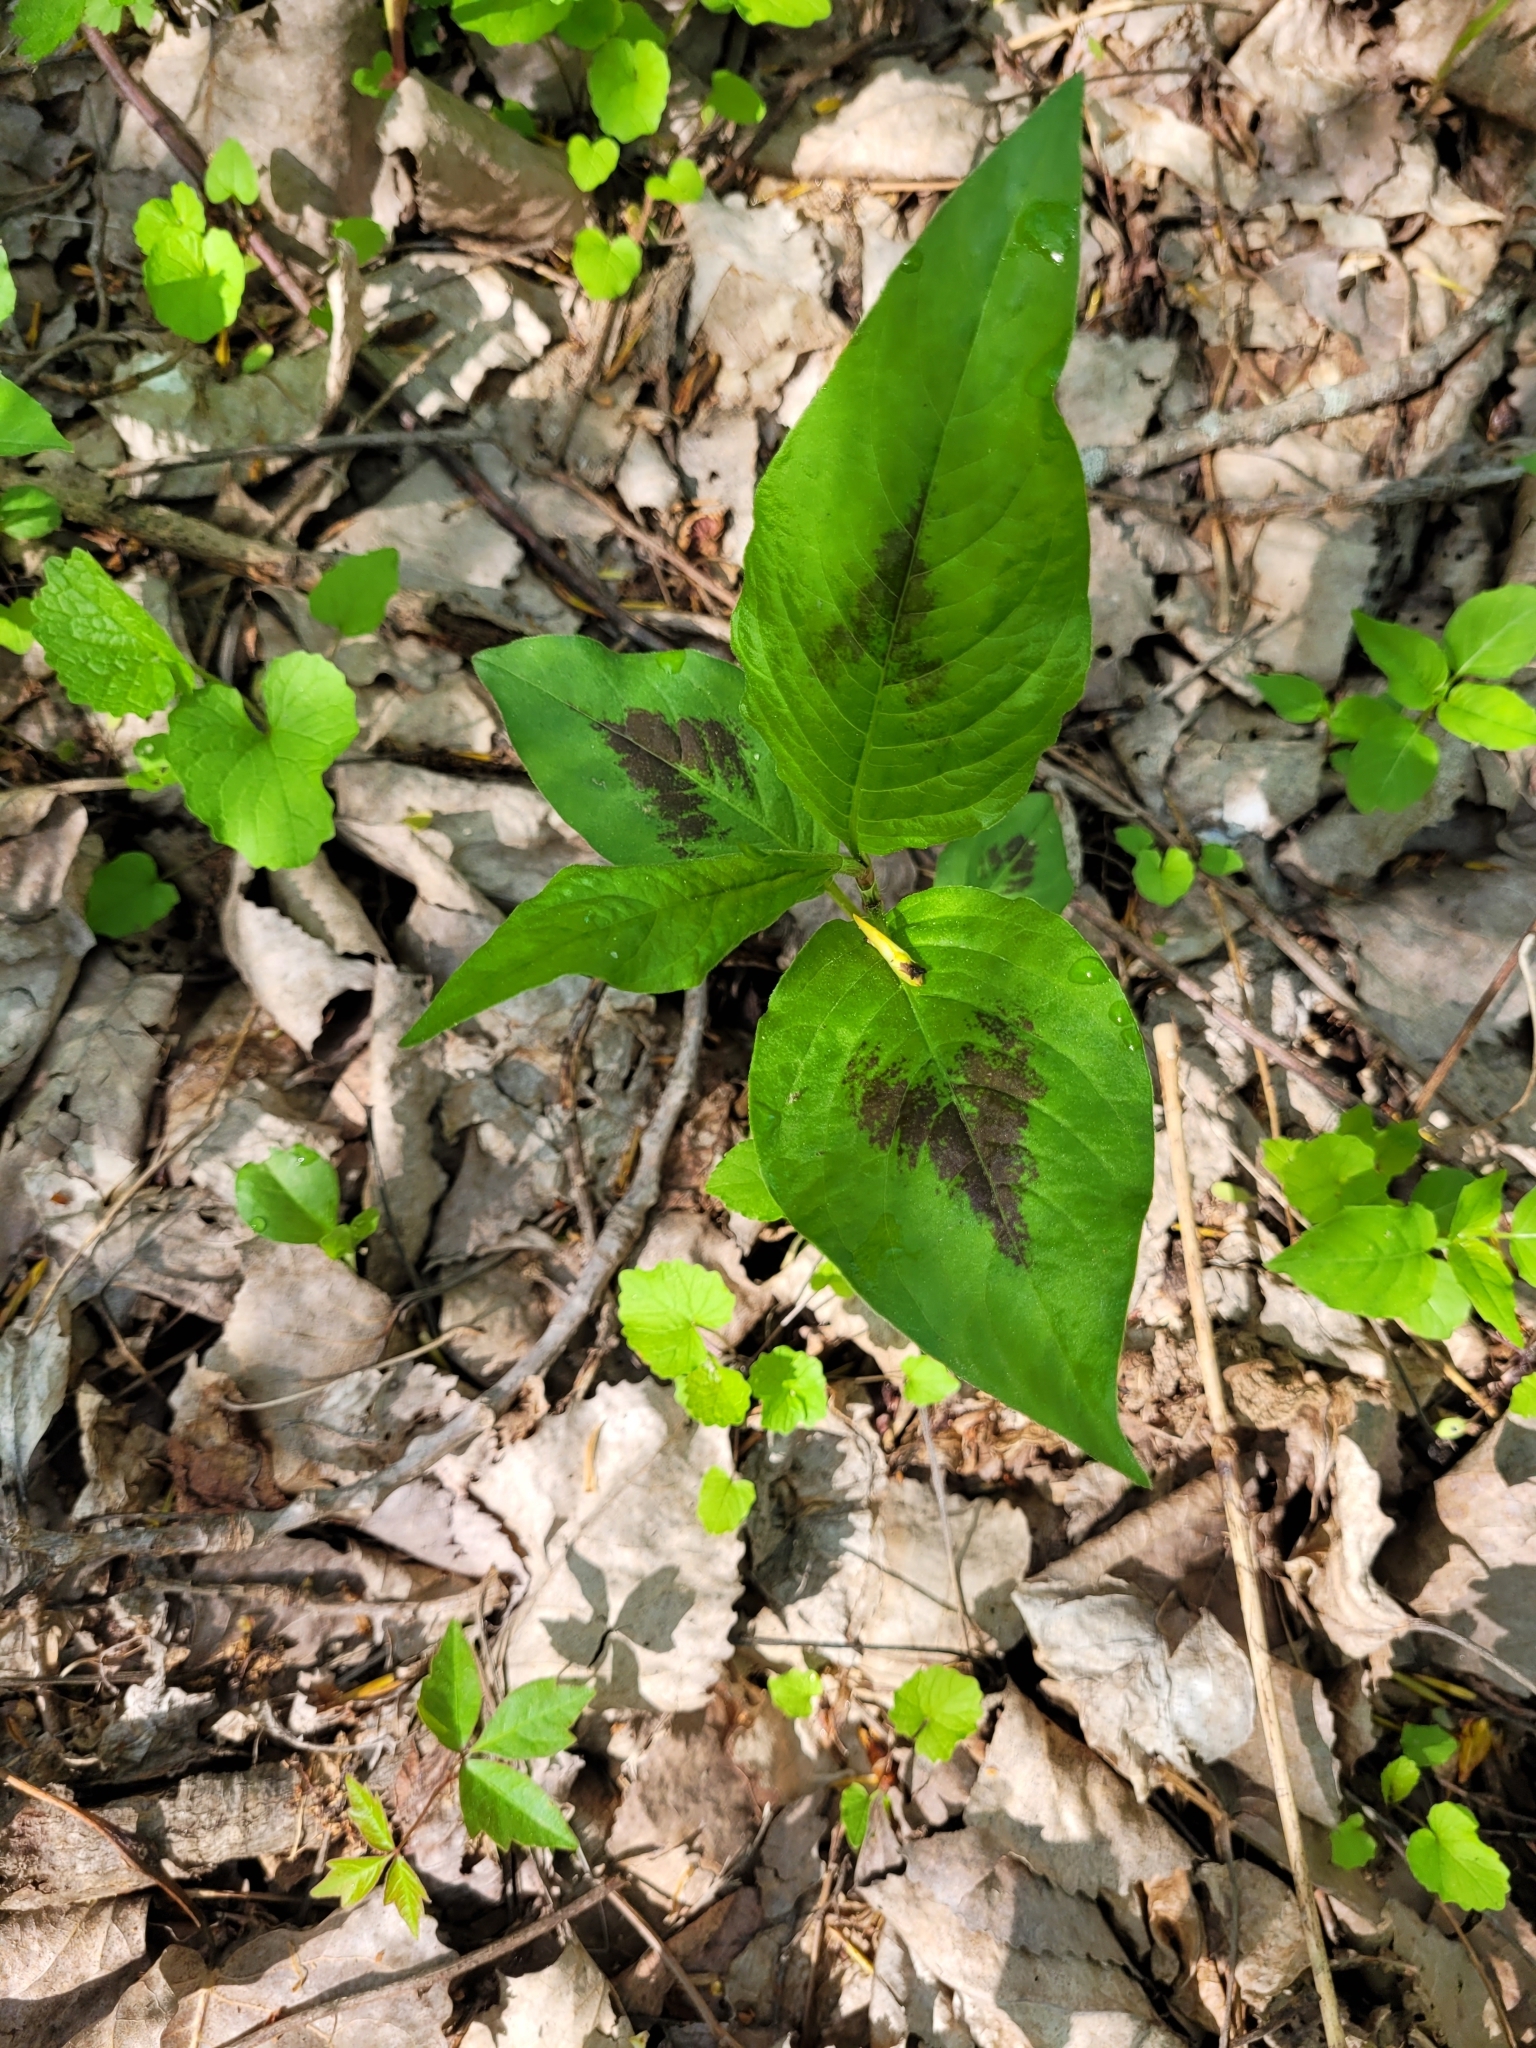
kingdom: Plantae
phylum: Tracheophyta
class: Magnoliopsida
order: Caryophyllales
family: Polygonaceae
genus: Persicaria
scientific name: Persicaria virginiana
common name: Jumpseed
